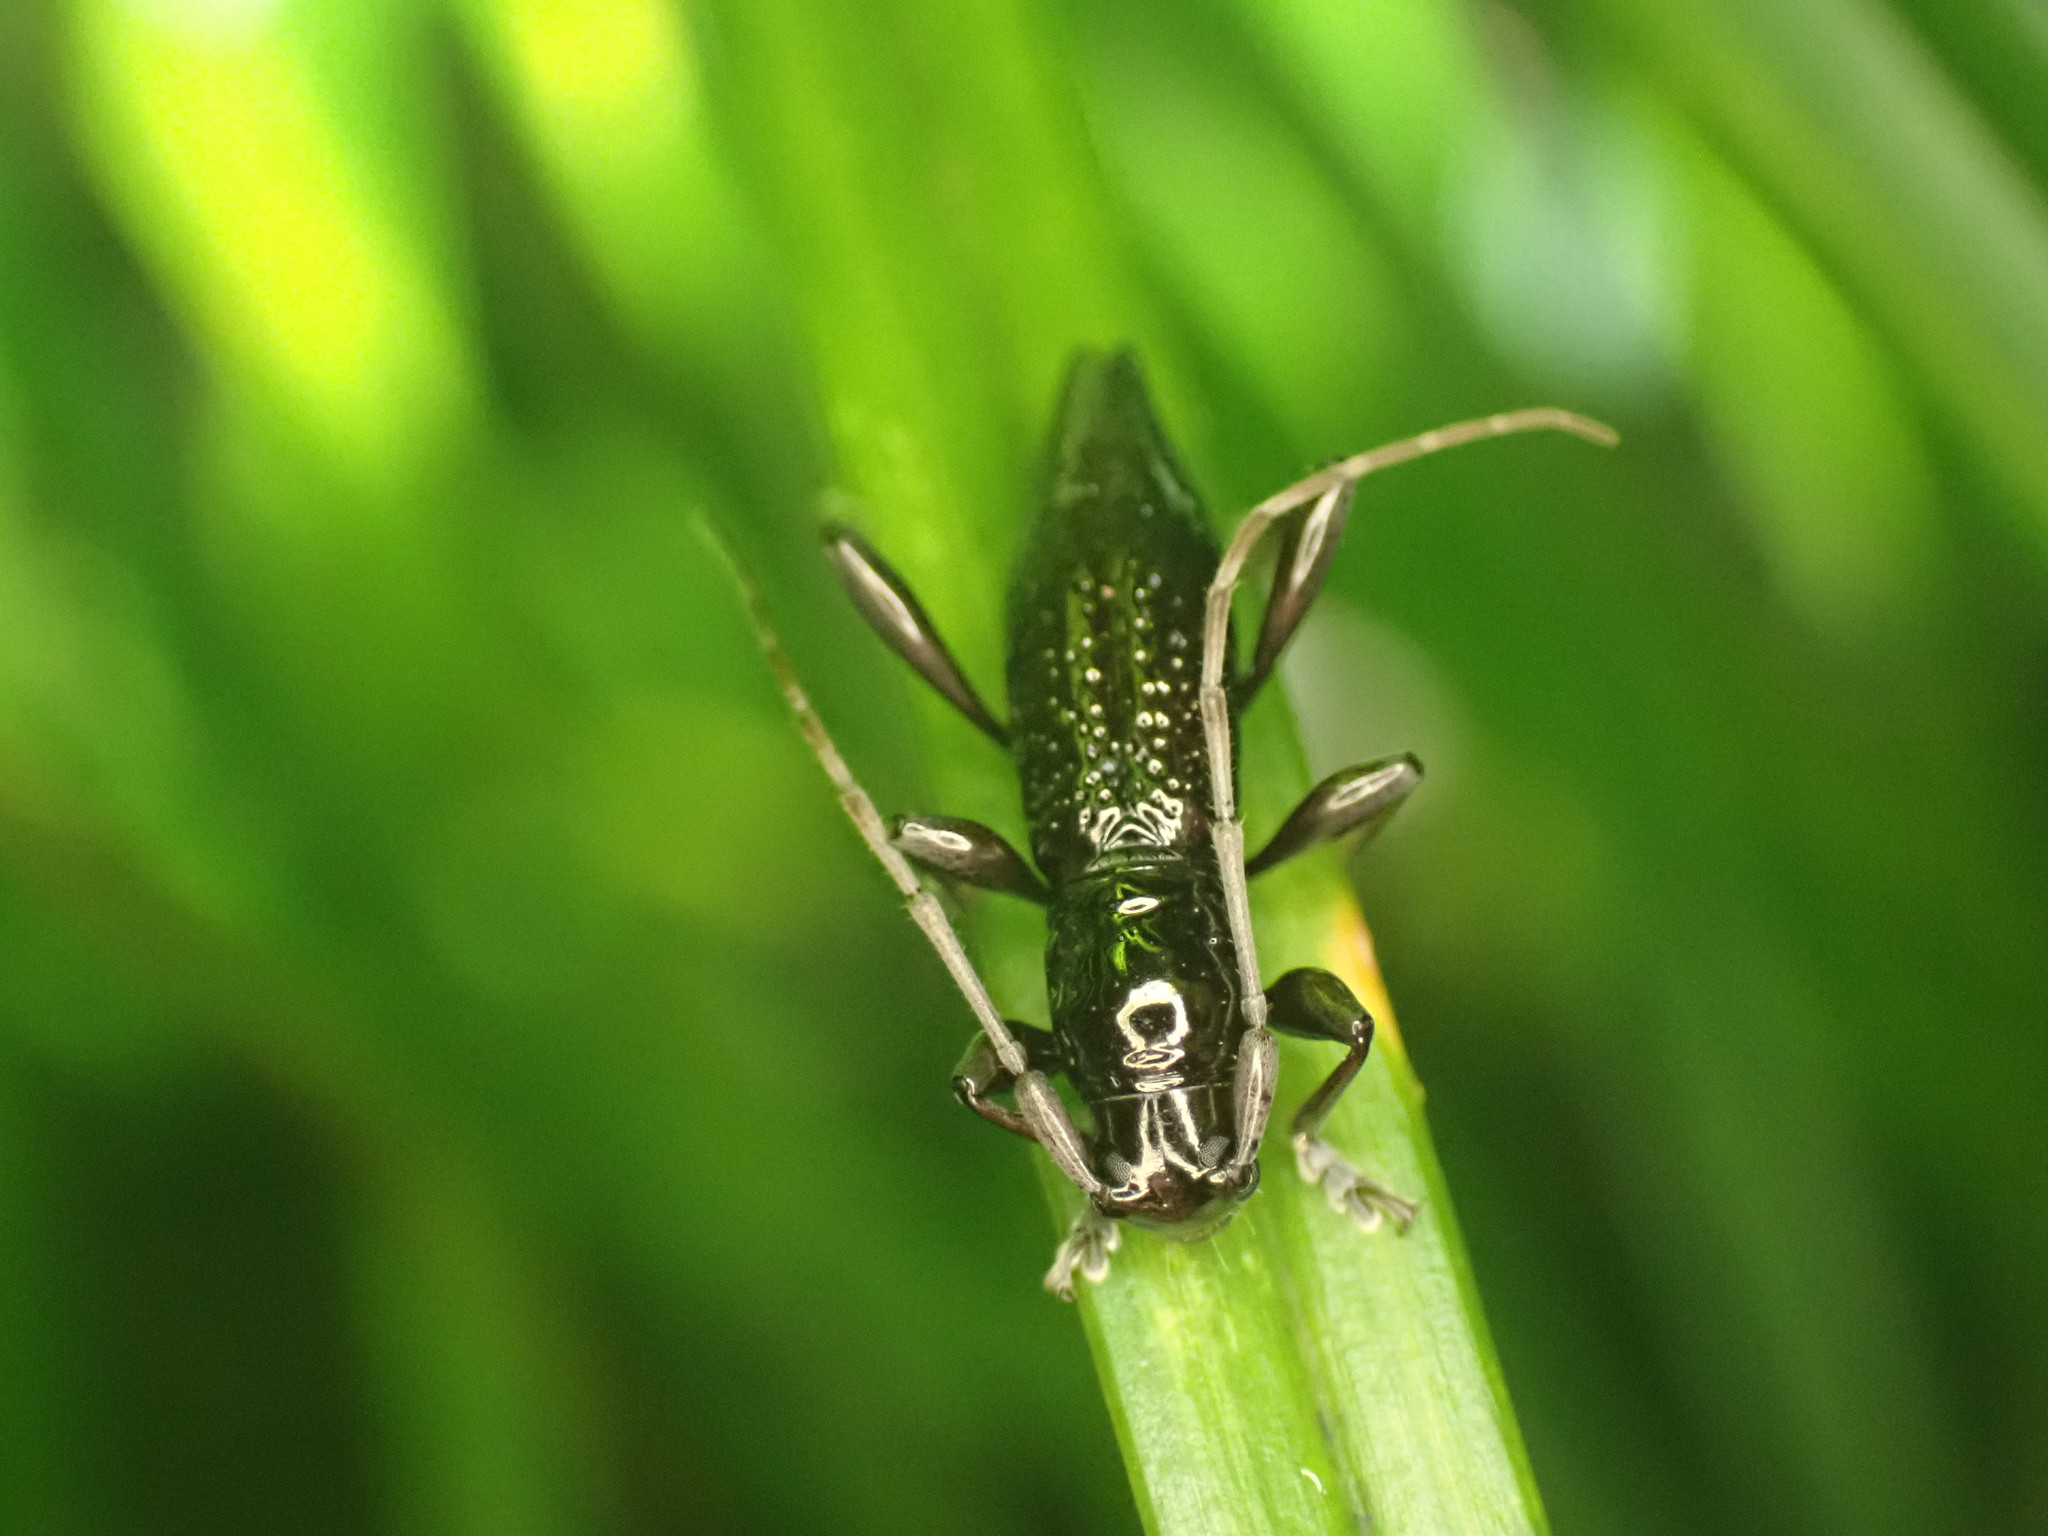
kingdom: Animalia
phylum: Arthropoda
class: Insecta
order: Coleoptera
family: Cerambycidae
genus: Xylotoles
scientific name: Xylotoles nudus
